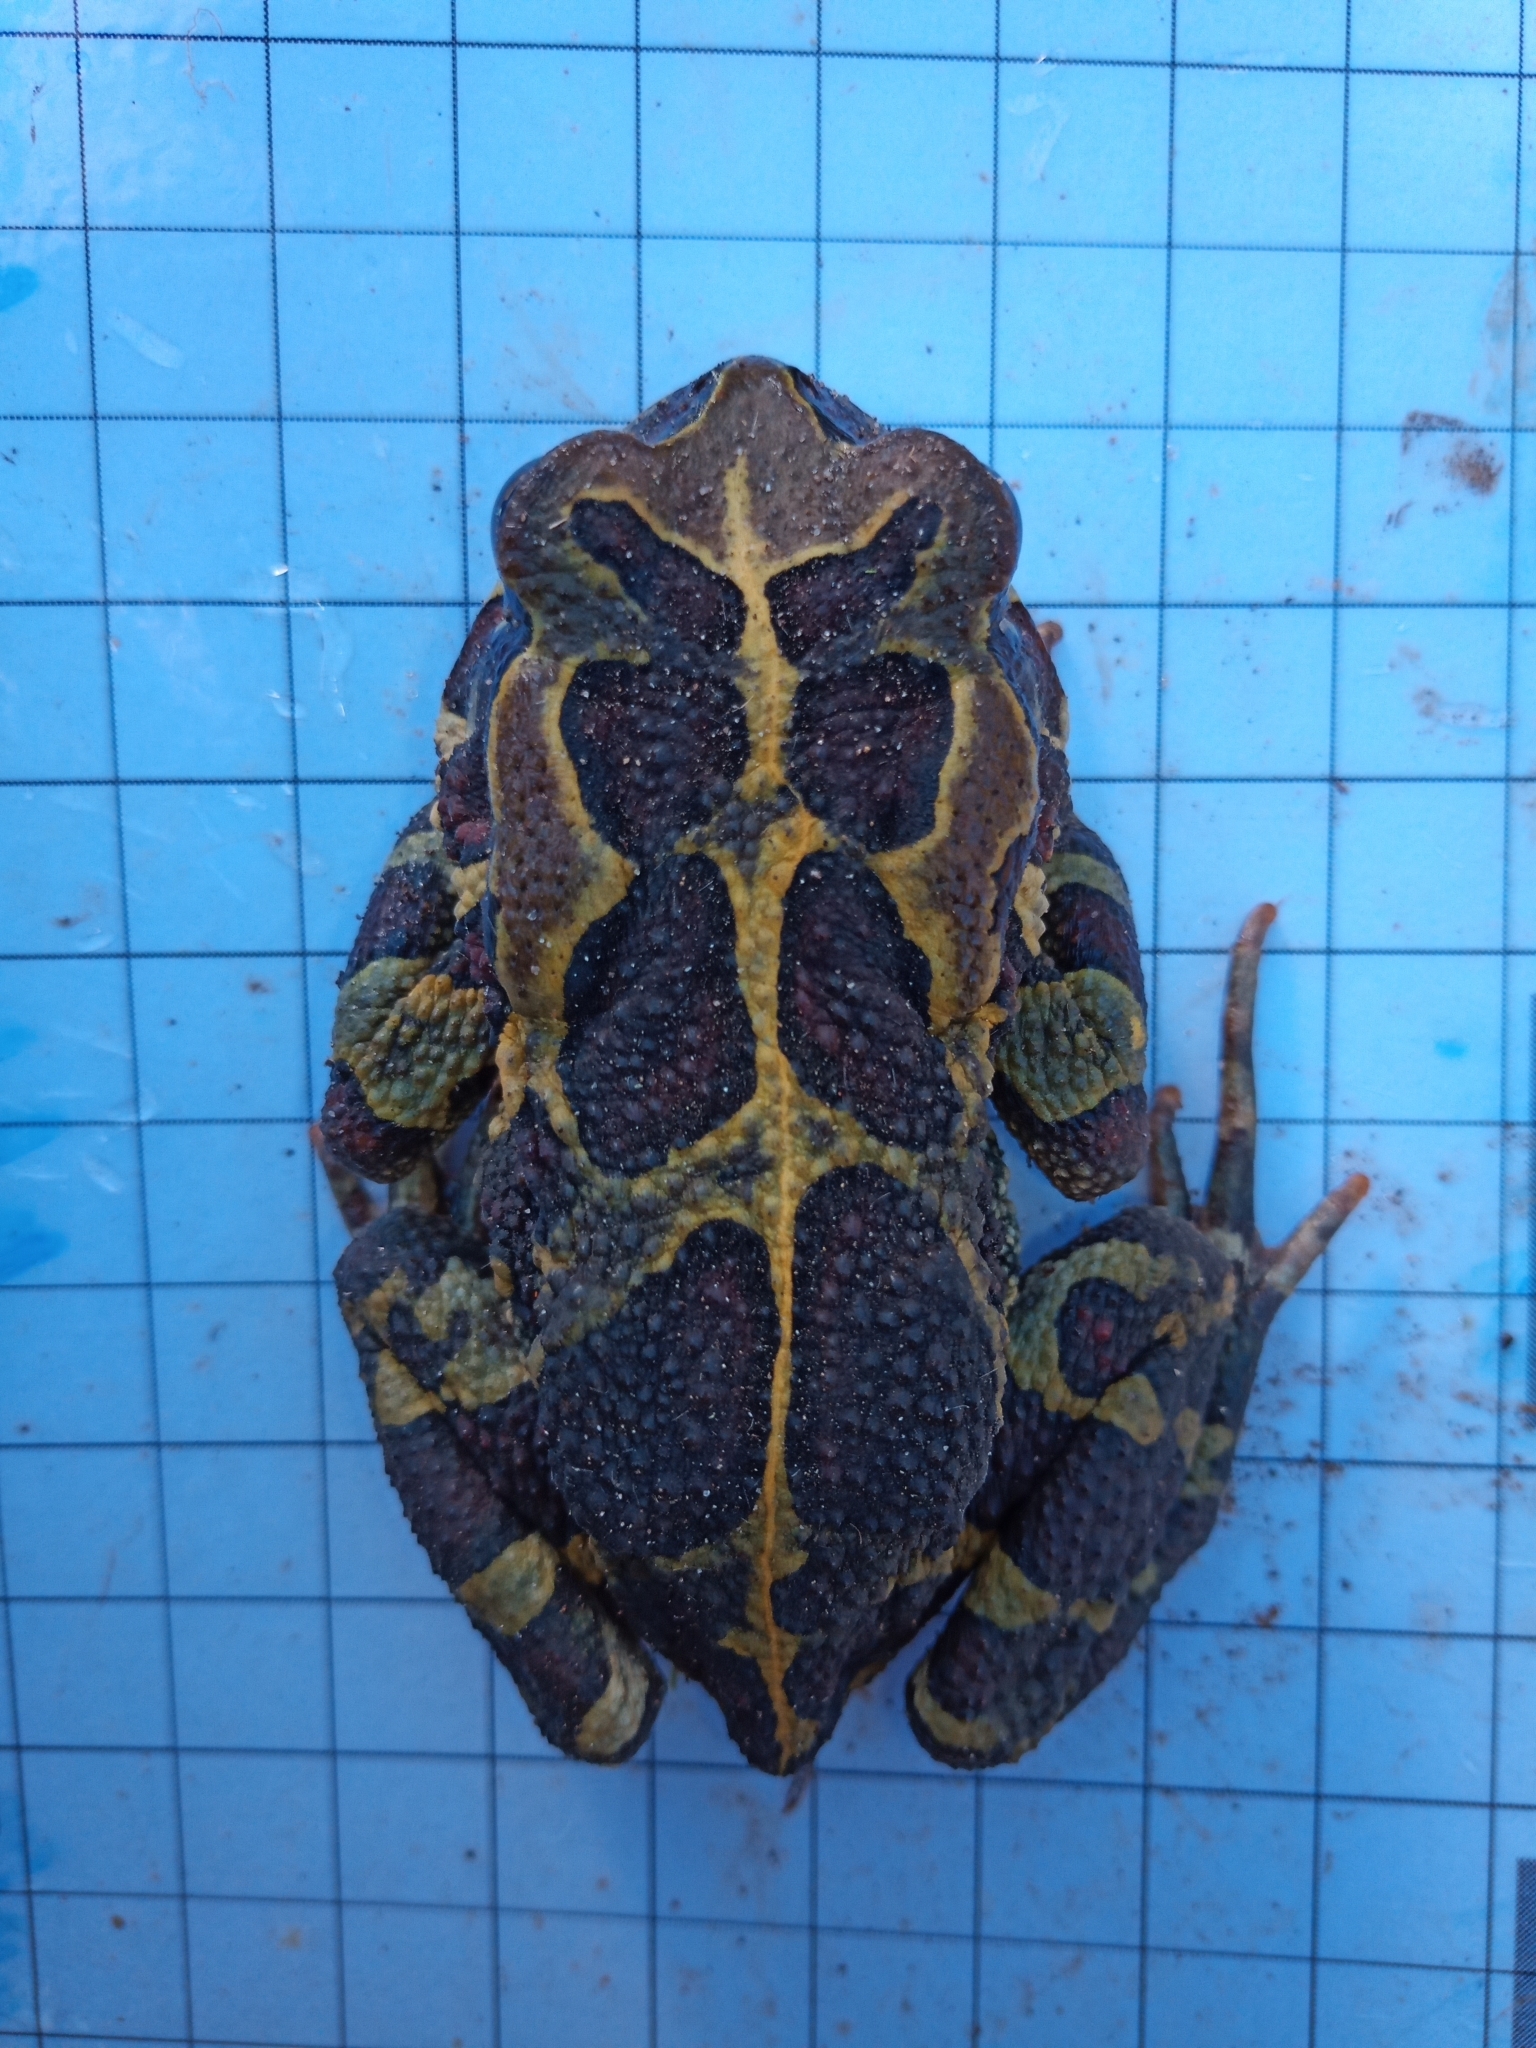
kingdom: Animalia
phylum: Chordata
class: Amphibia
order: Anura
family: Bufonidae
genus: Sclerophrys
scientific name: Sclerophrys pantherina
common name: Panther toad
